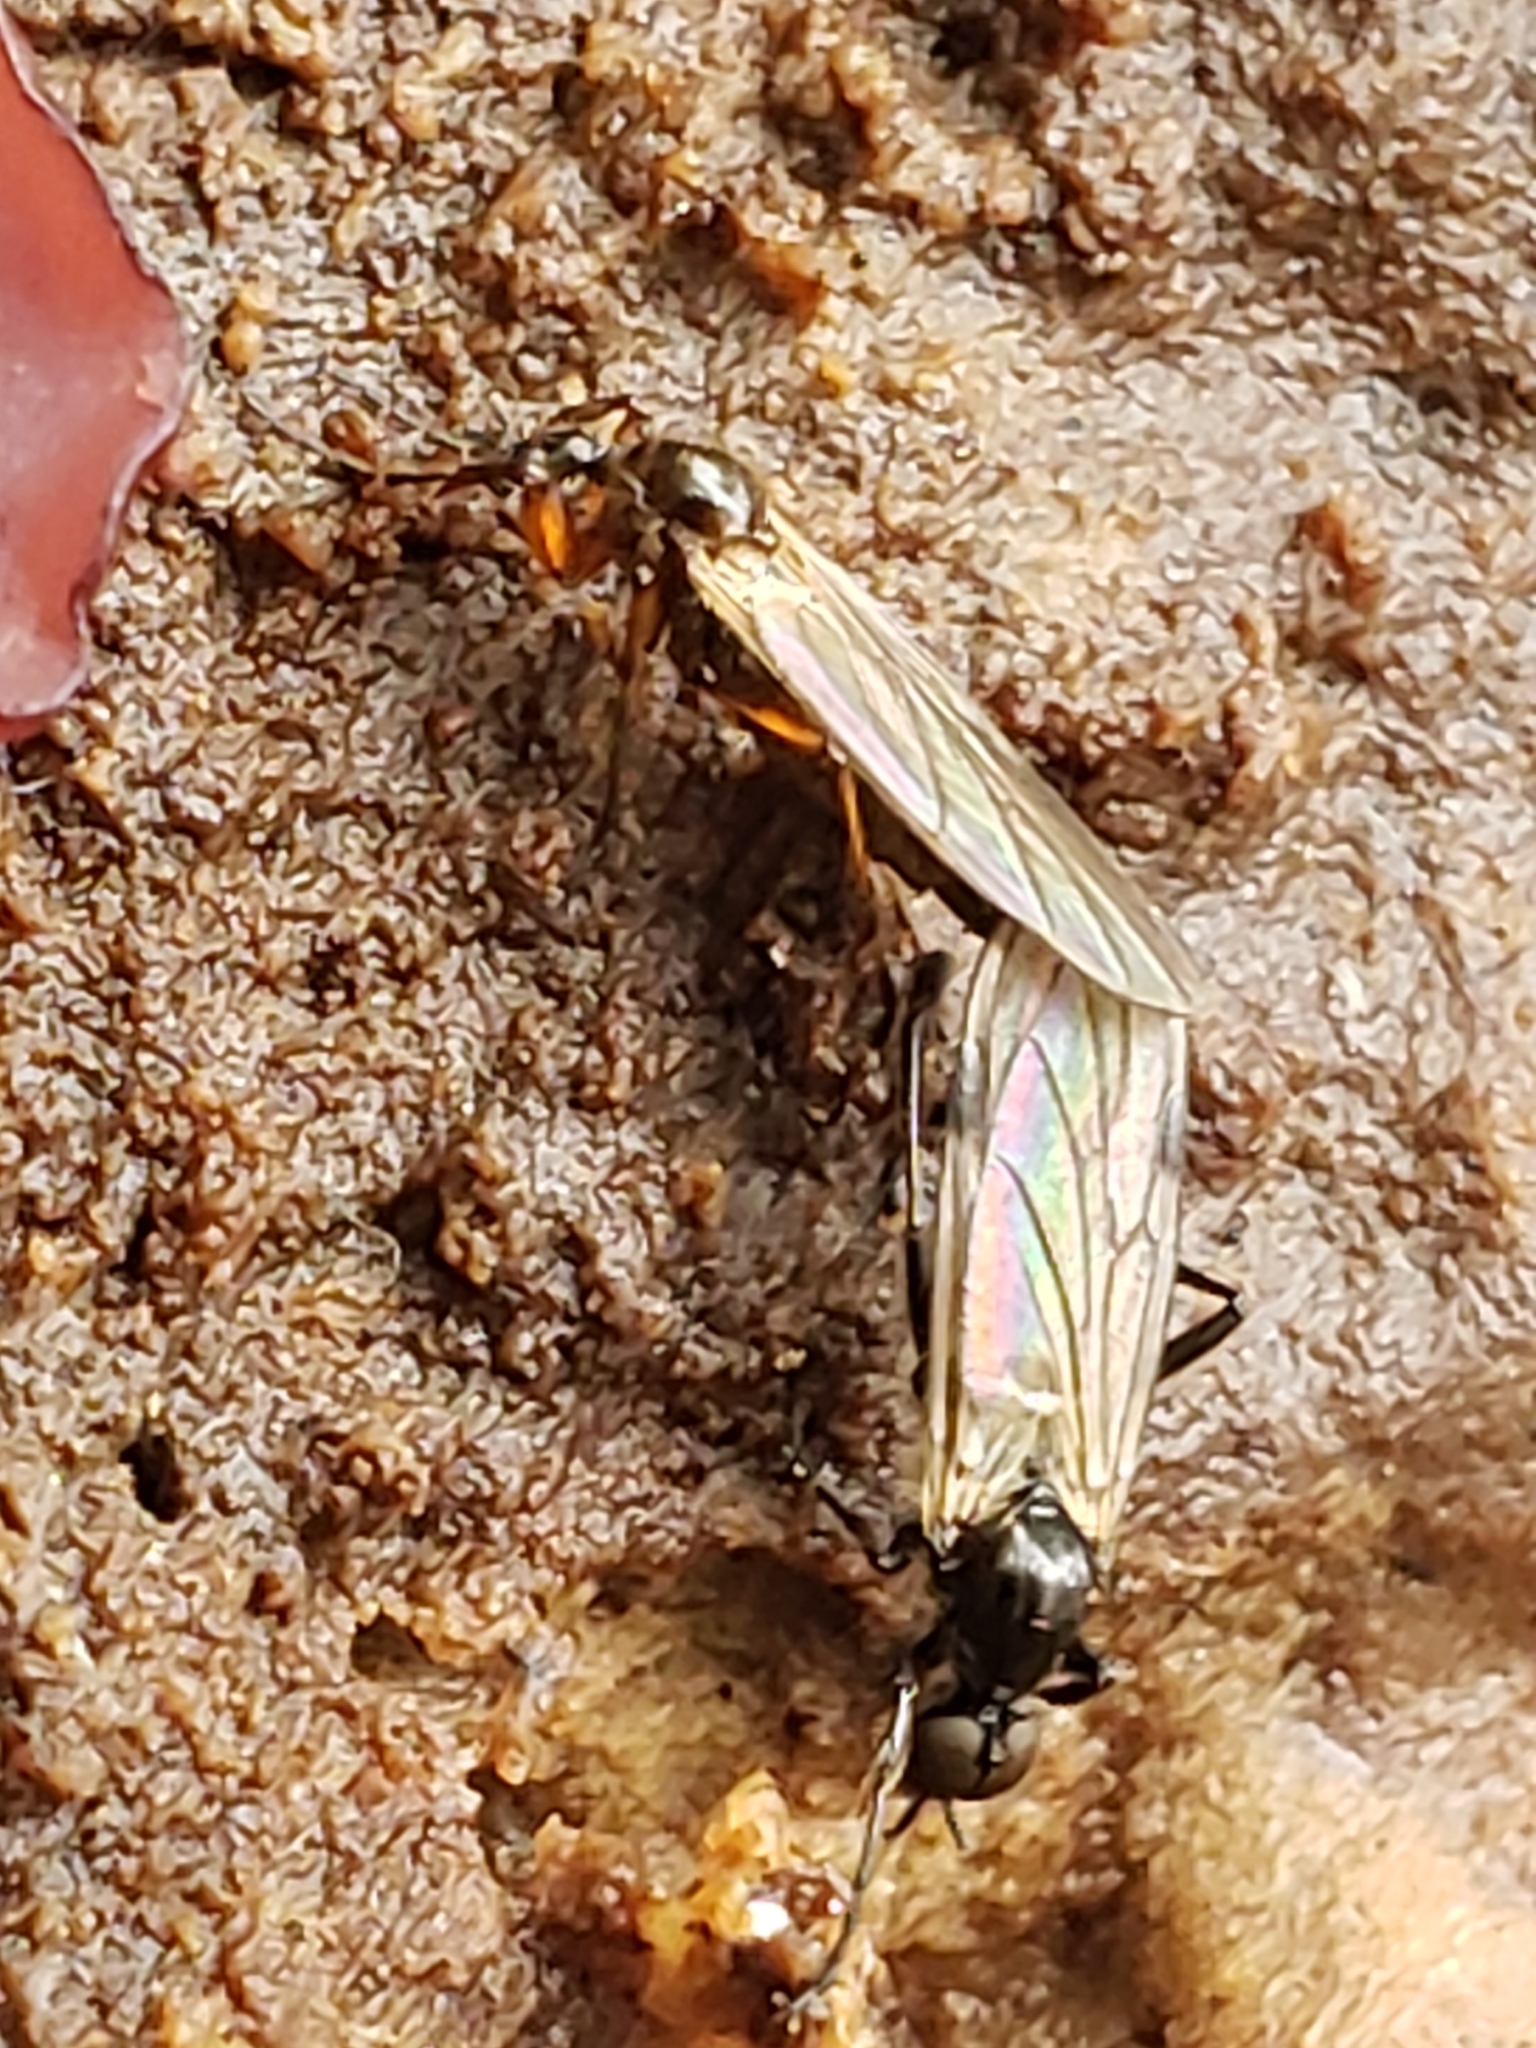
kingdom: Animalia
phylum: Arthropoda
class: Insecta
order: Diptera
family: Bibionidae
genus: Bibio
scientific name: Bibio
